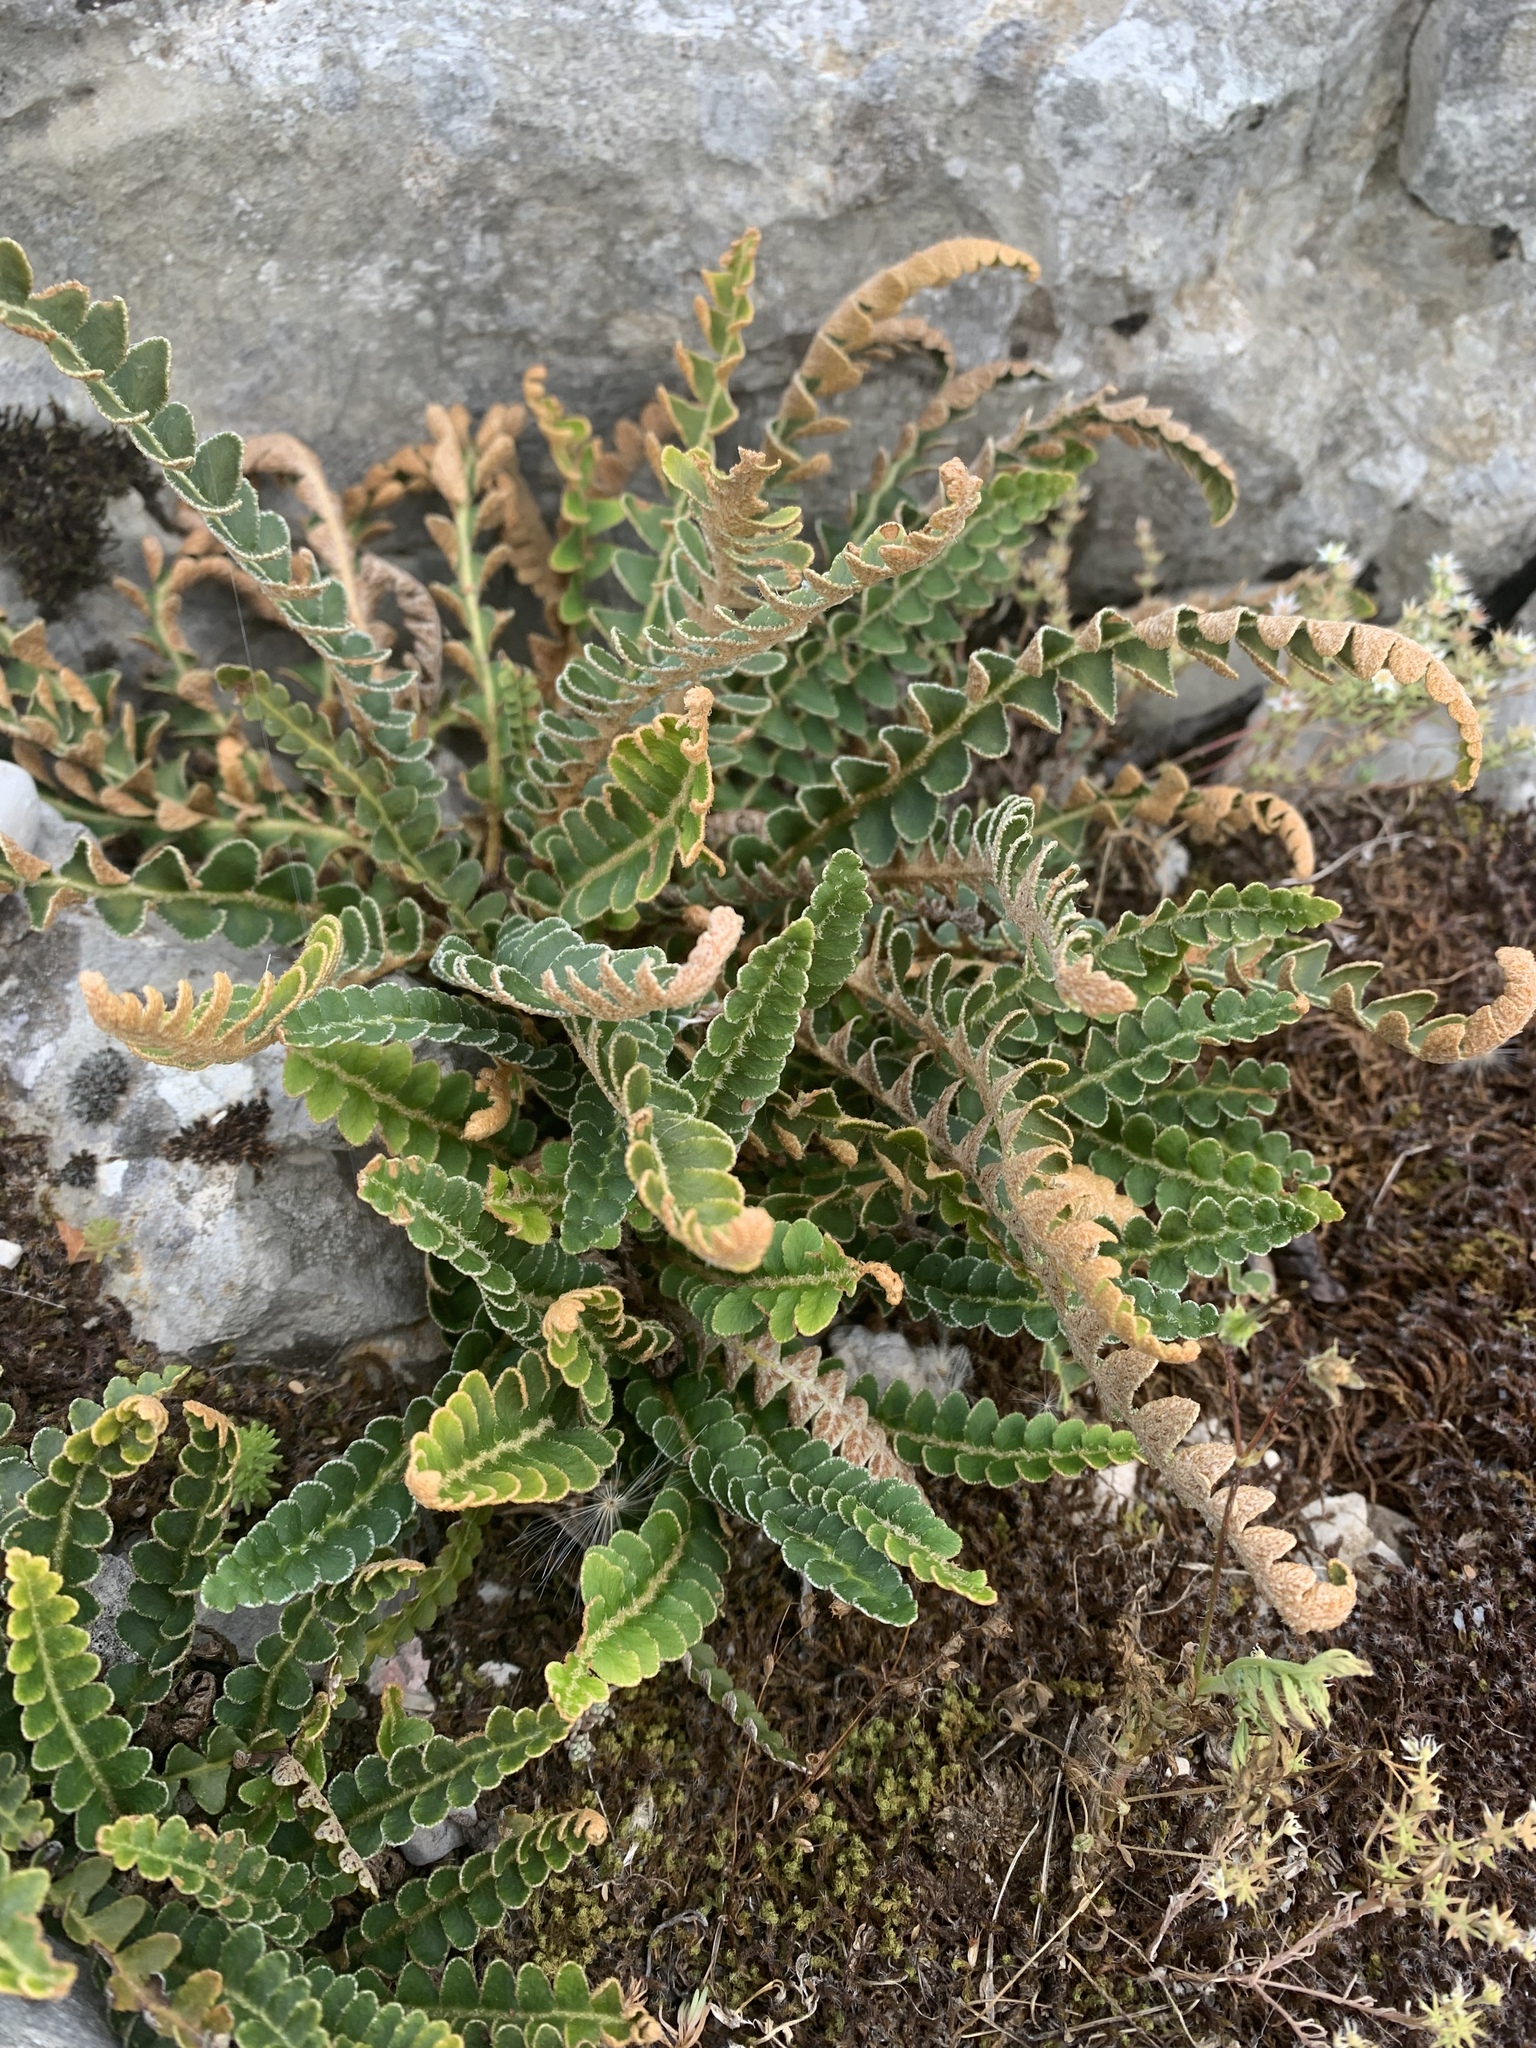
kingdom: Plantae
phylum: Tracheophyta
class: Polypodiopsida
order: Polypodiales
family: Aspleniaceae
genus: Asplenium
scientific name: Asplenium ceterach
